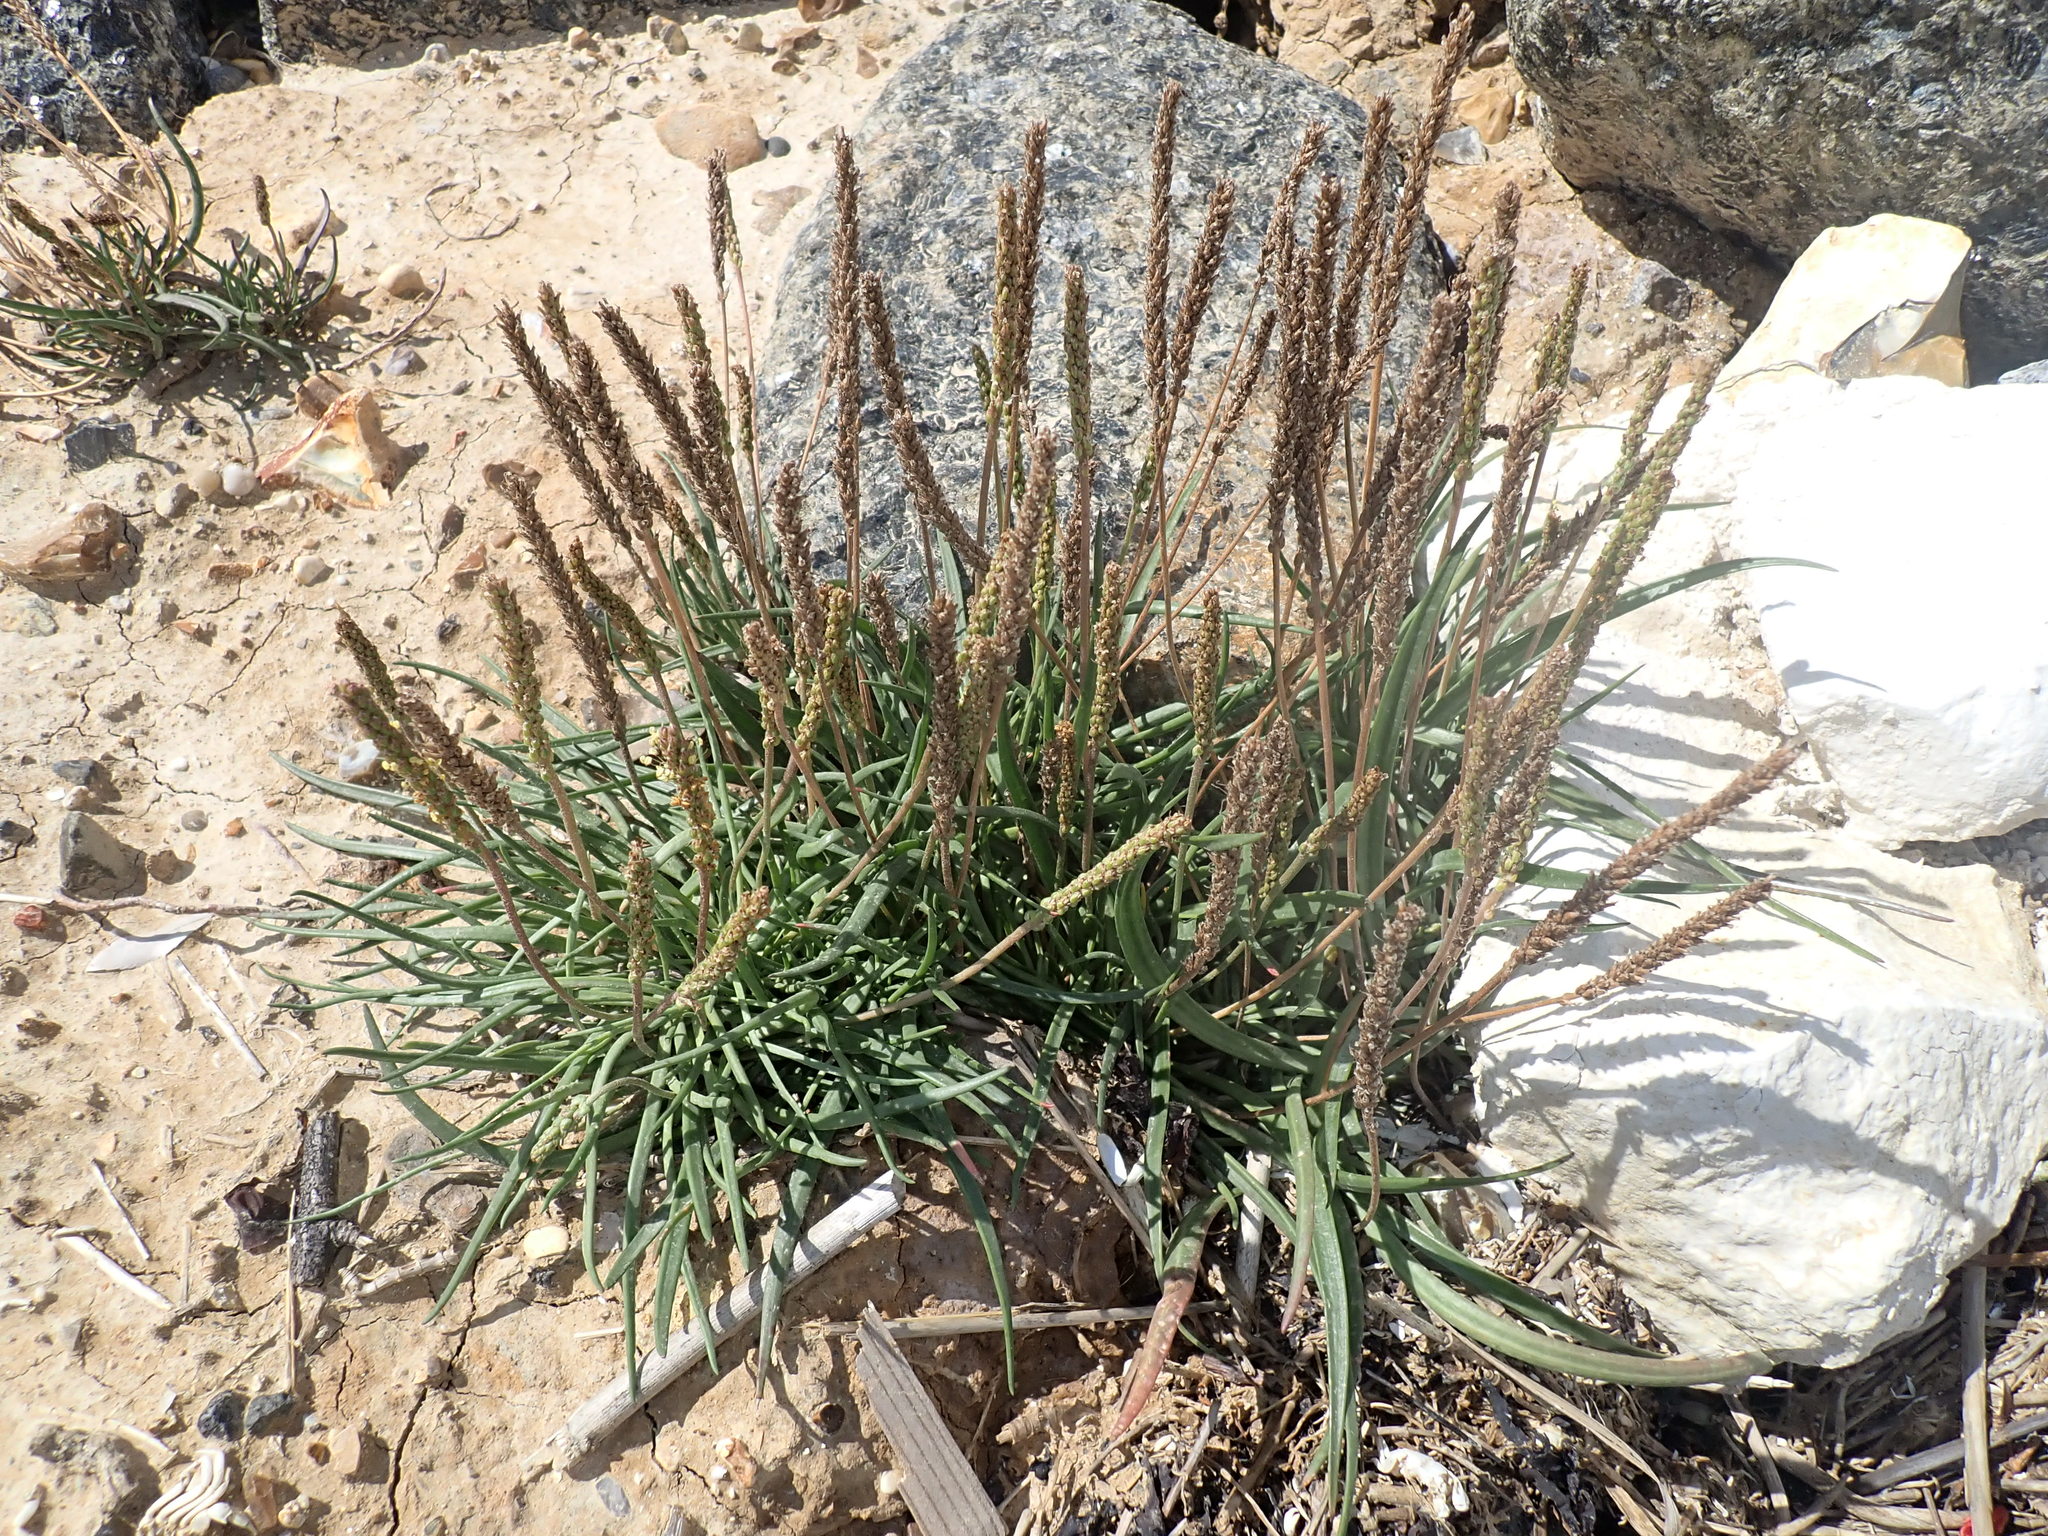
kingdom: Plantae
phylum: Tracheophyta
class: Magnoliopsida
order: Lamiales
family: Plantaginaceae
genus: Plantago
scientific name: Plantago maritima
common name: Sea plantain
